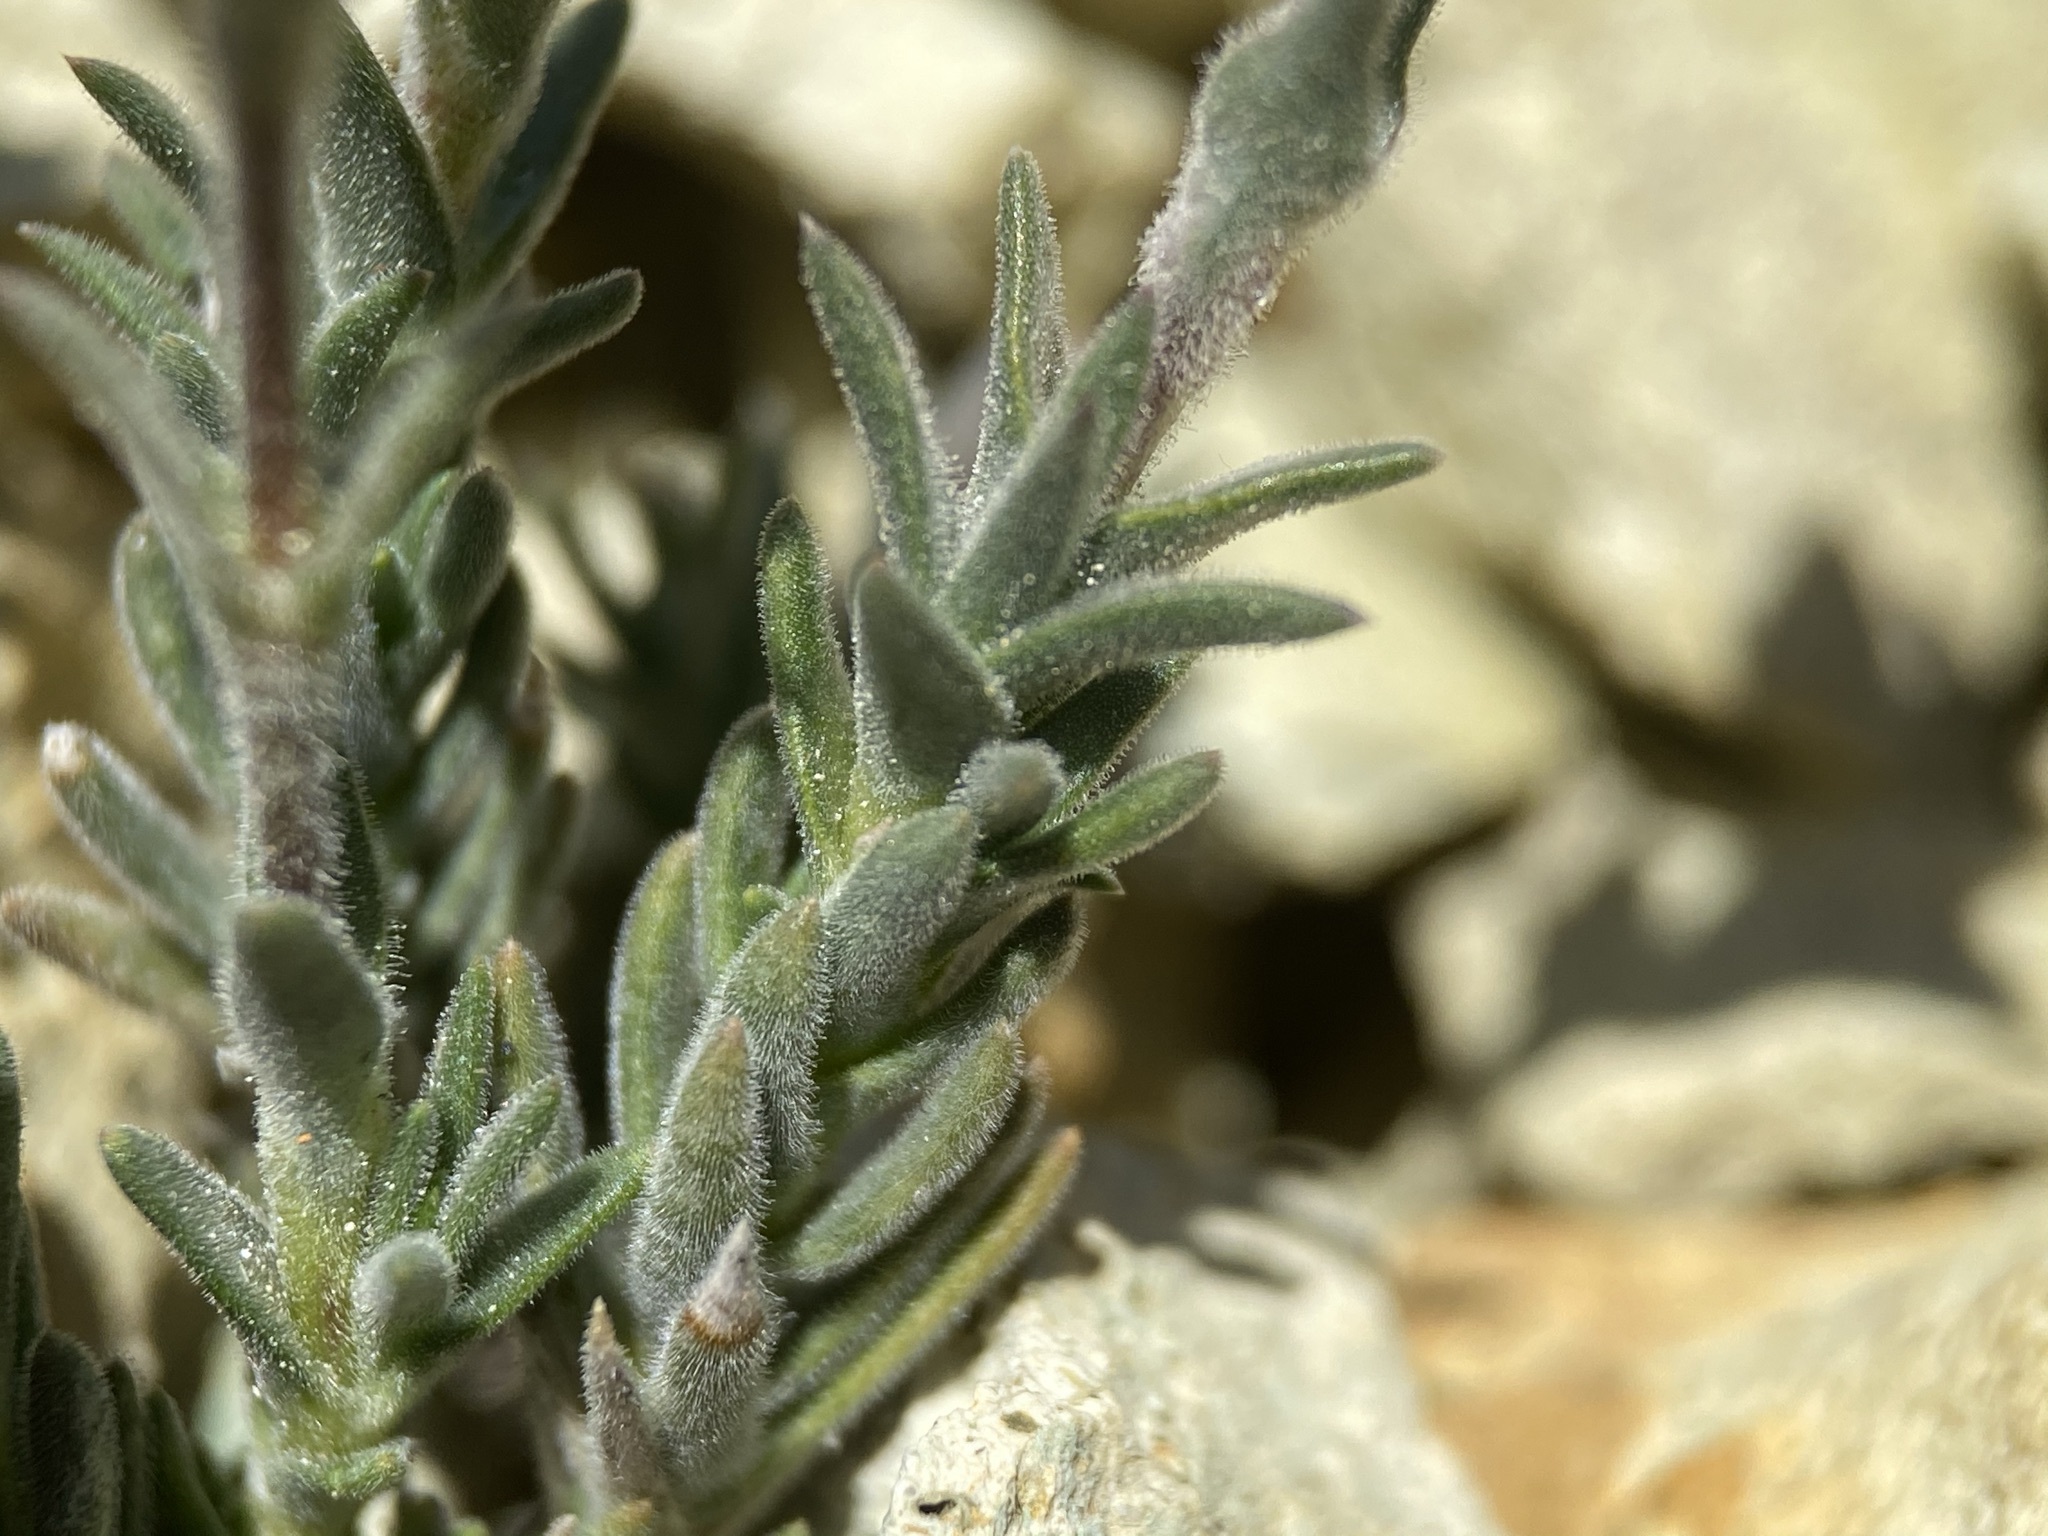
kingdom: Plantae
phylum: Tracheophyta
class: Magnoliopsida
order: Caryophyllales
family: Caryophyllaceae
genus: Sabulina
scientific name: Sabulina nuttallii
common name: Nuttall's stitchwort
